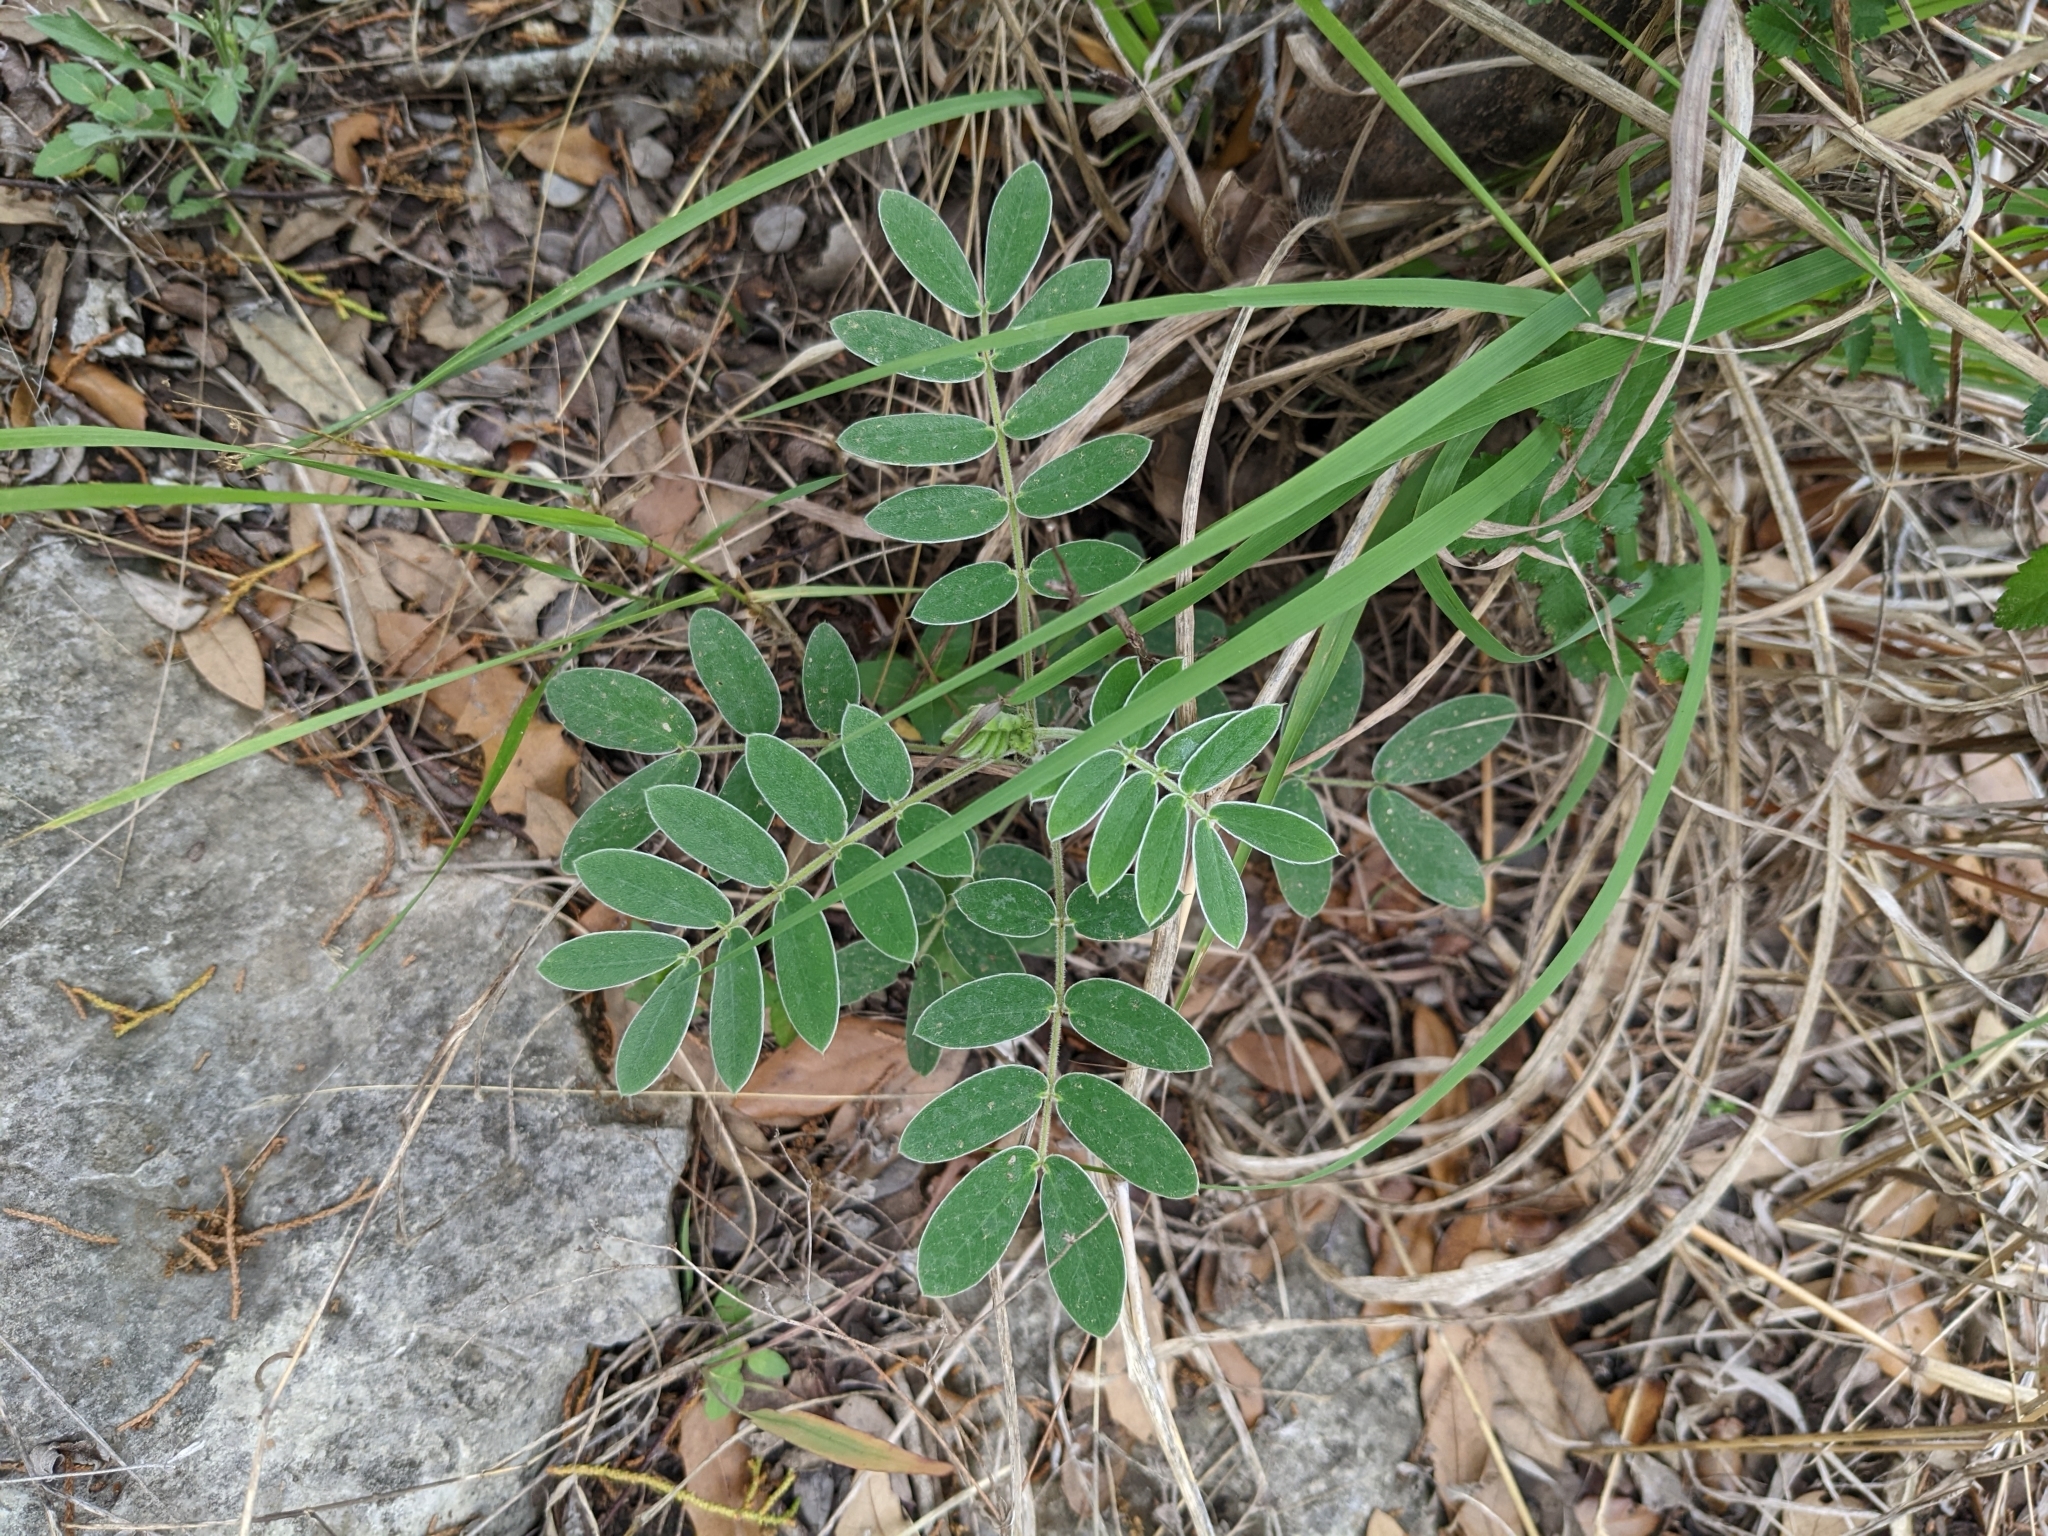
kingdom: Plantae
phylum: Tracheophyta
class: Magnoliopsida
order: Fabales
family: Fabaceae
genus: Senna
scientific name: Senna lindheimeriana
